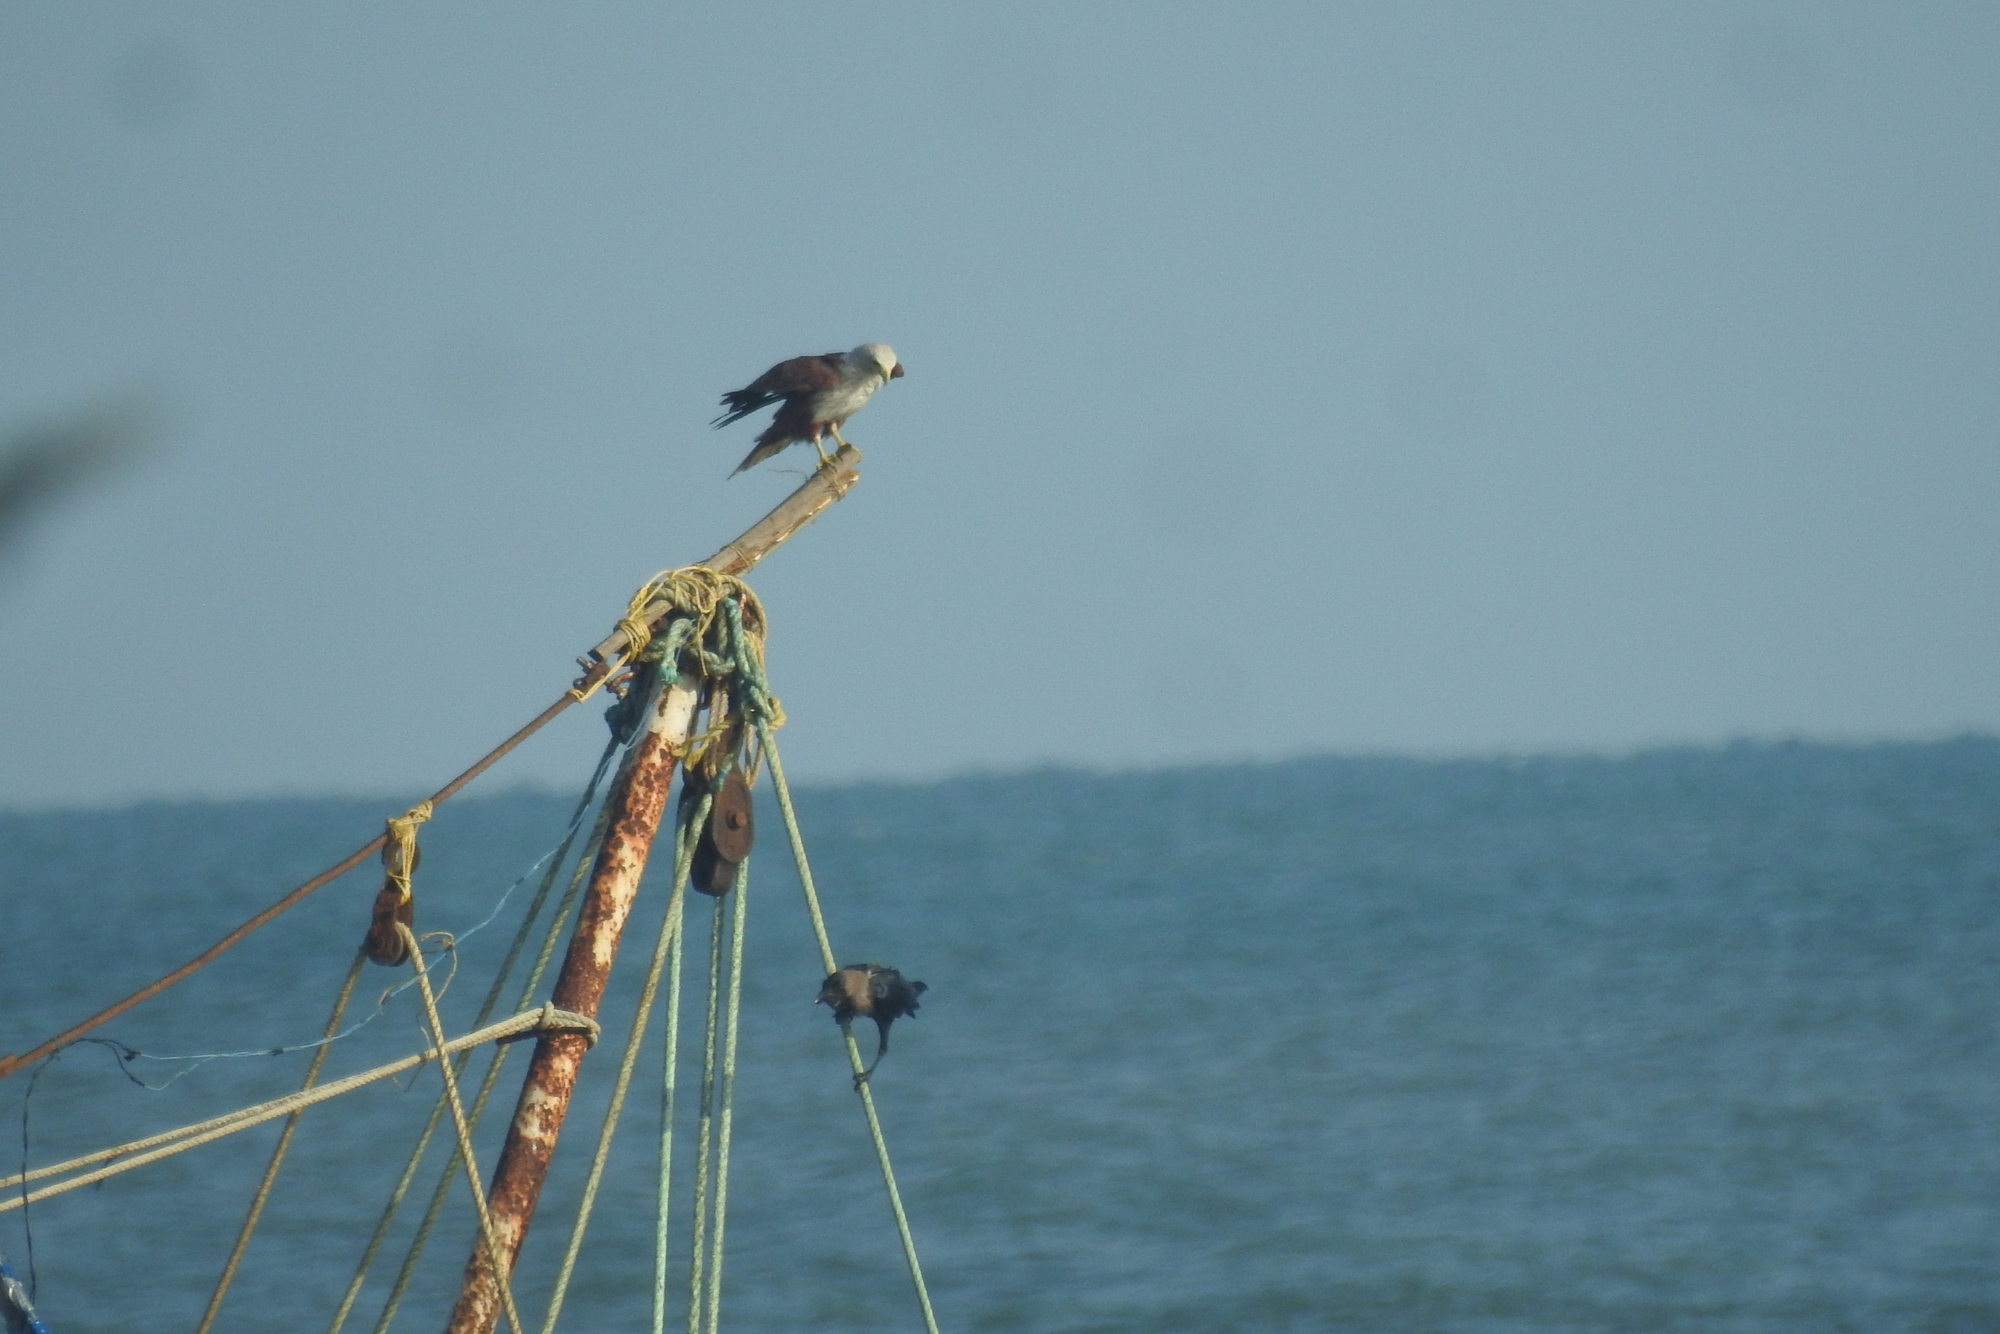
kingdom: Animalia
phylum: Chordata
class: Aves
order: Accipitriformes
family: Accipitridae
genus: Haliastur
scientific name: Haliastur indus
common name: Brahminy kite
